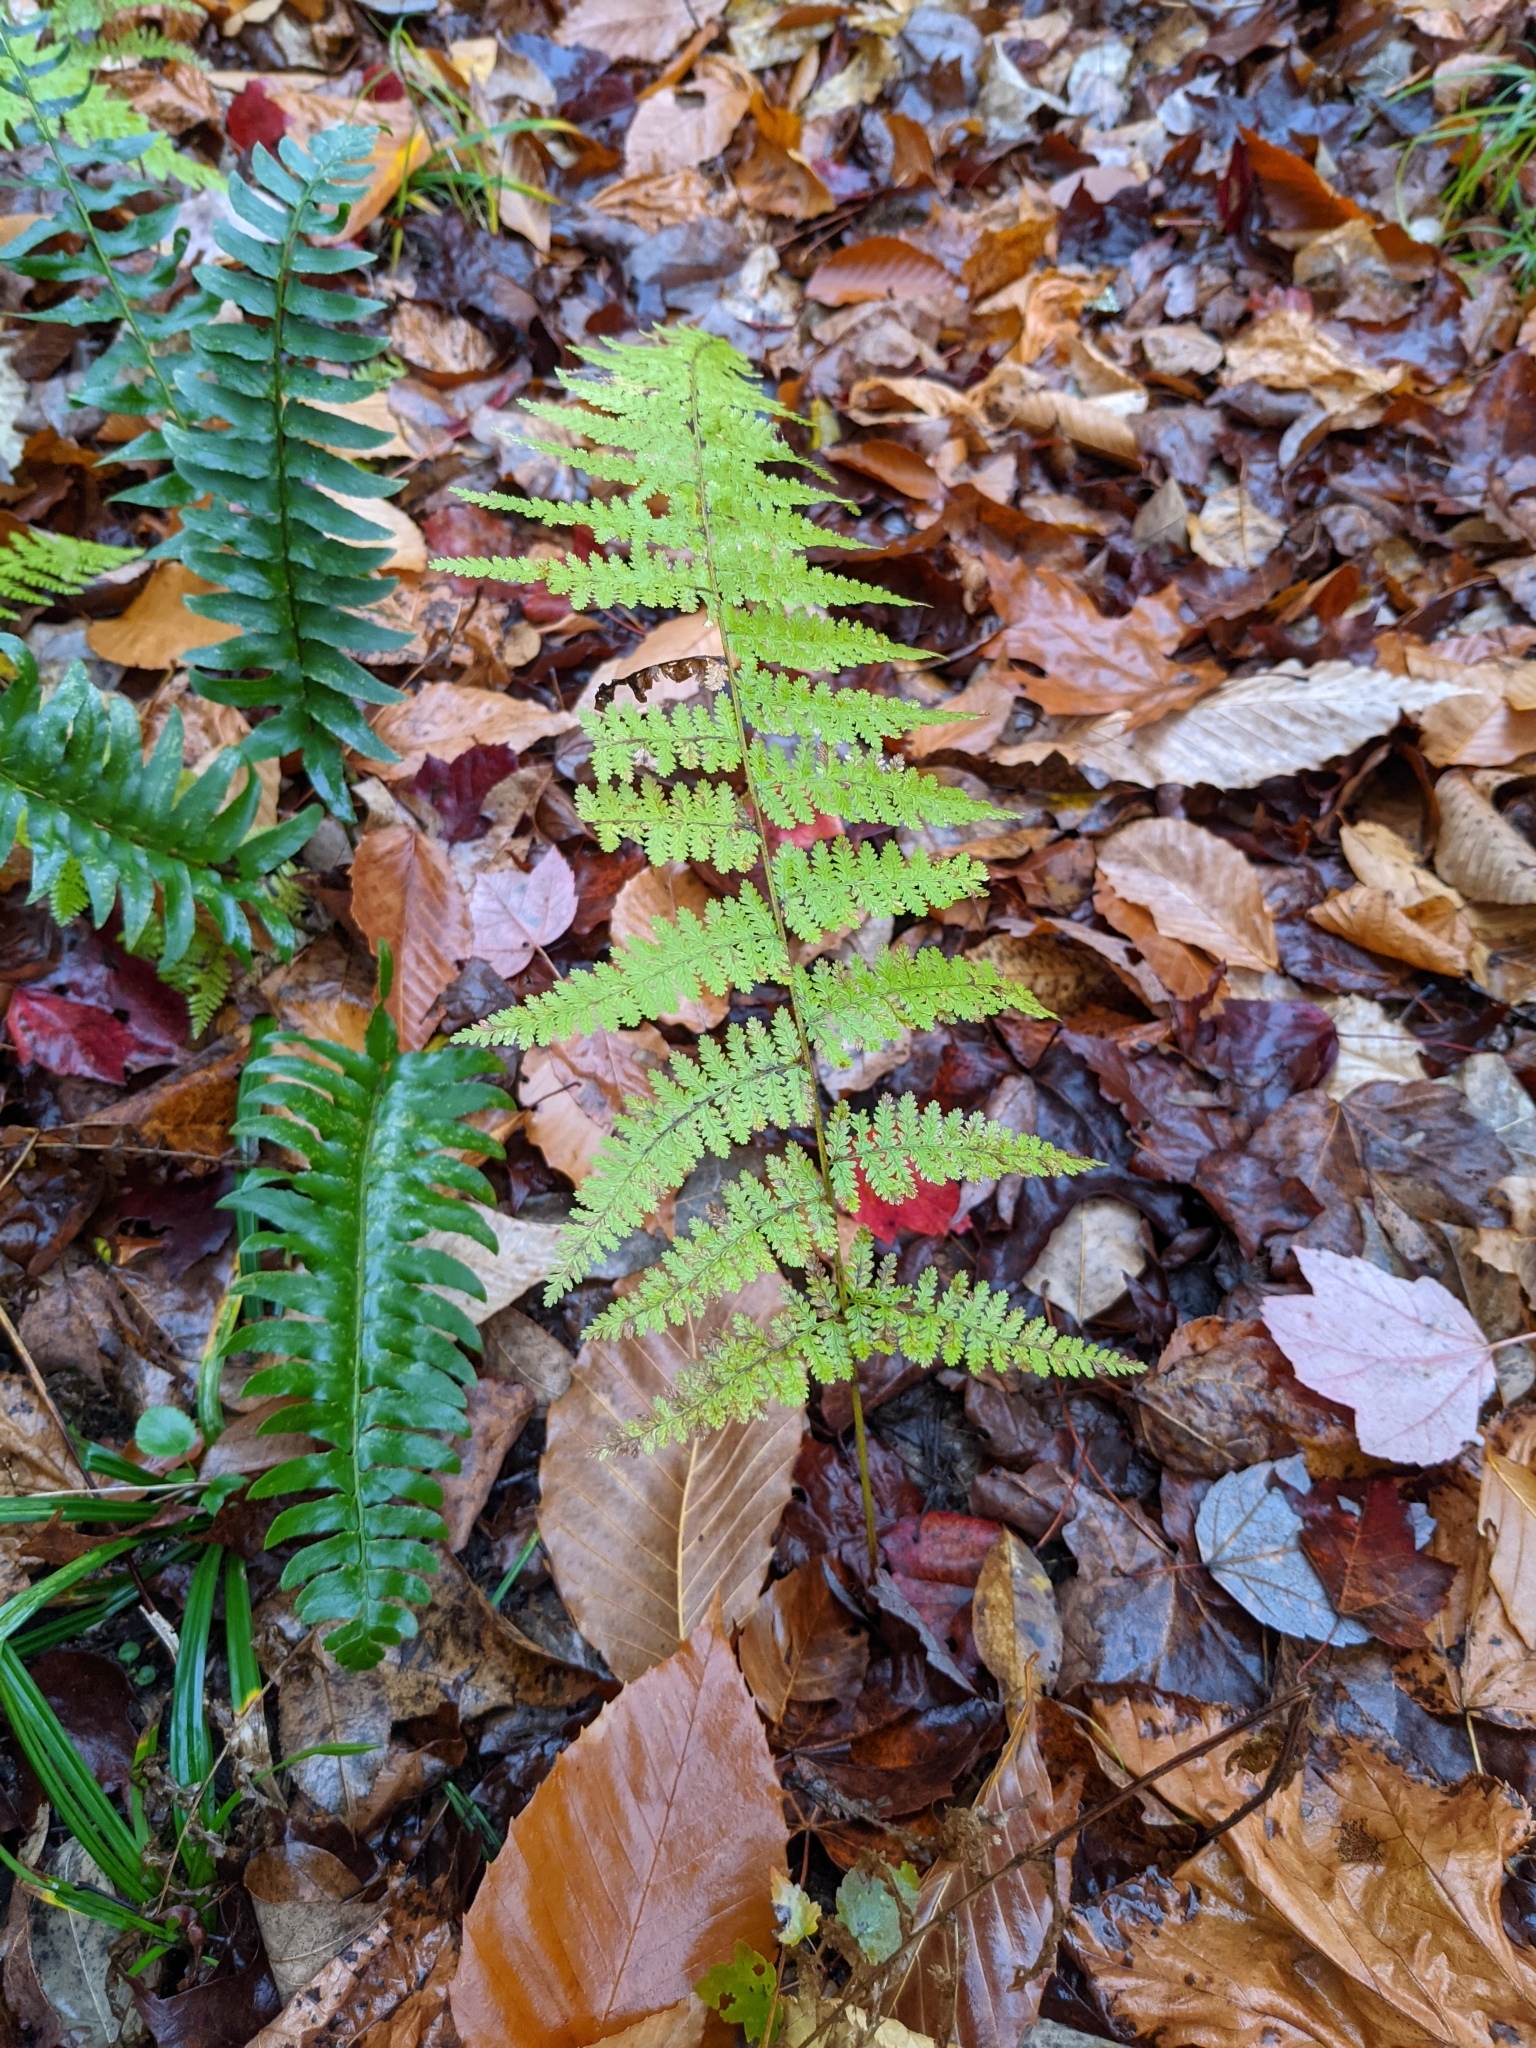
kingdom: Plantae
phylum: Tracheophyta
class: Polypodiopsida
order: Polypodiales
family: Dennstaedtiaceae
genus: Sitobolium
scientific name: Sitobolium punctilobum
